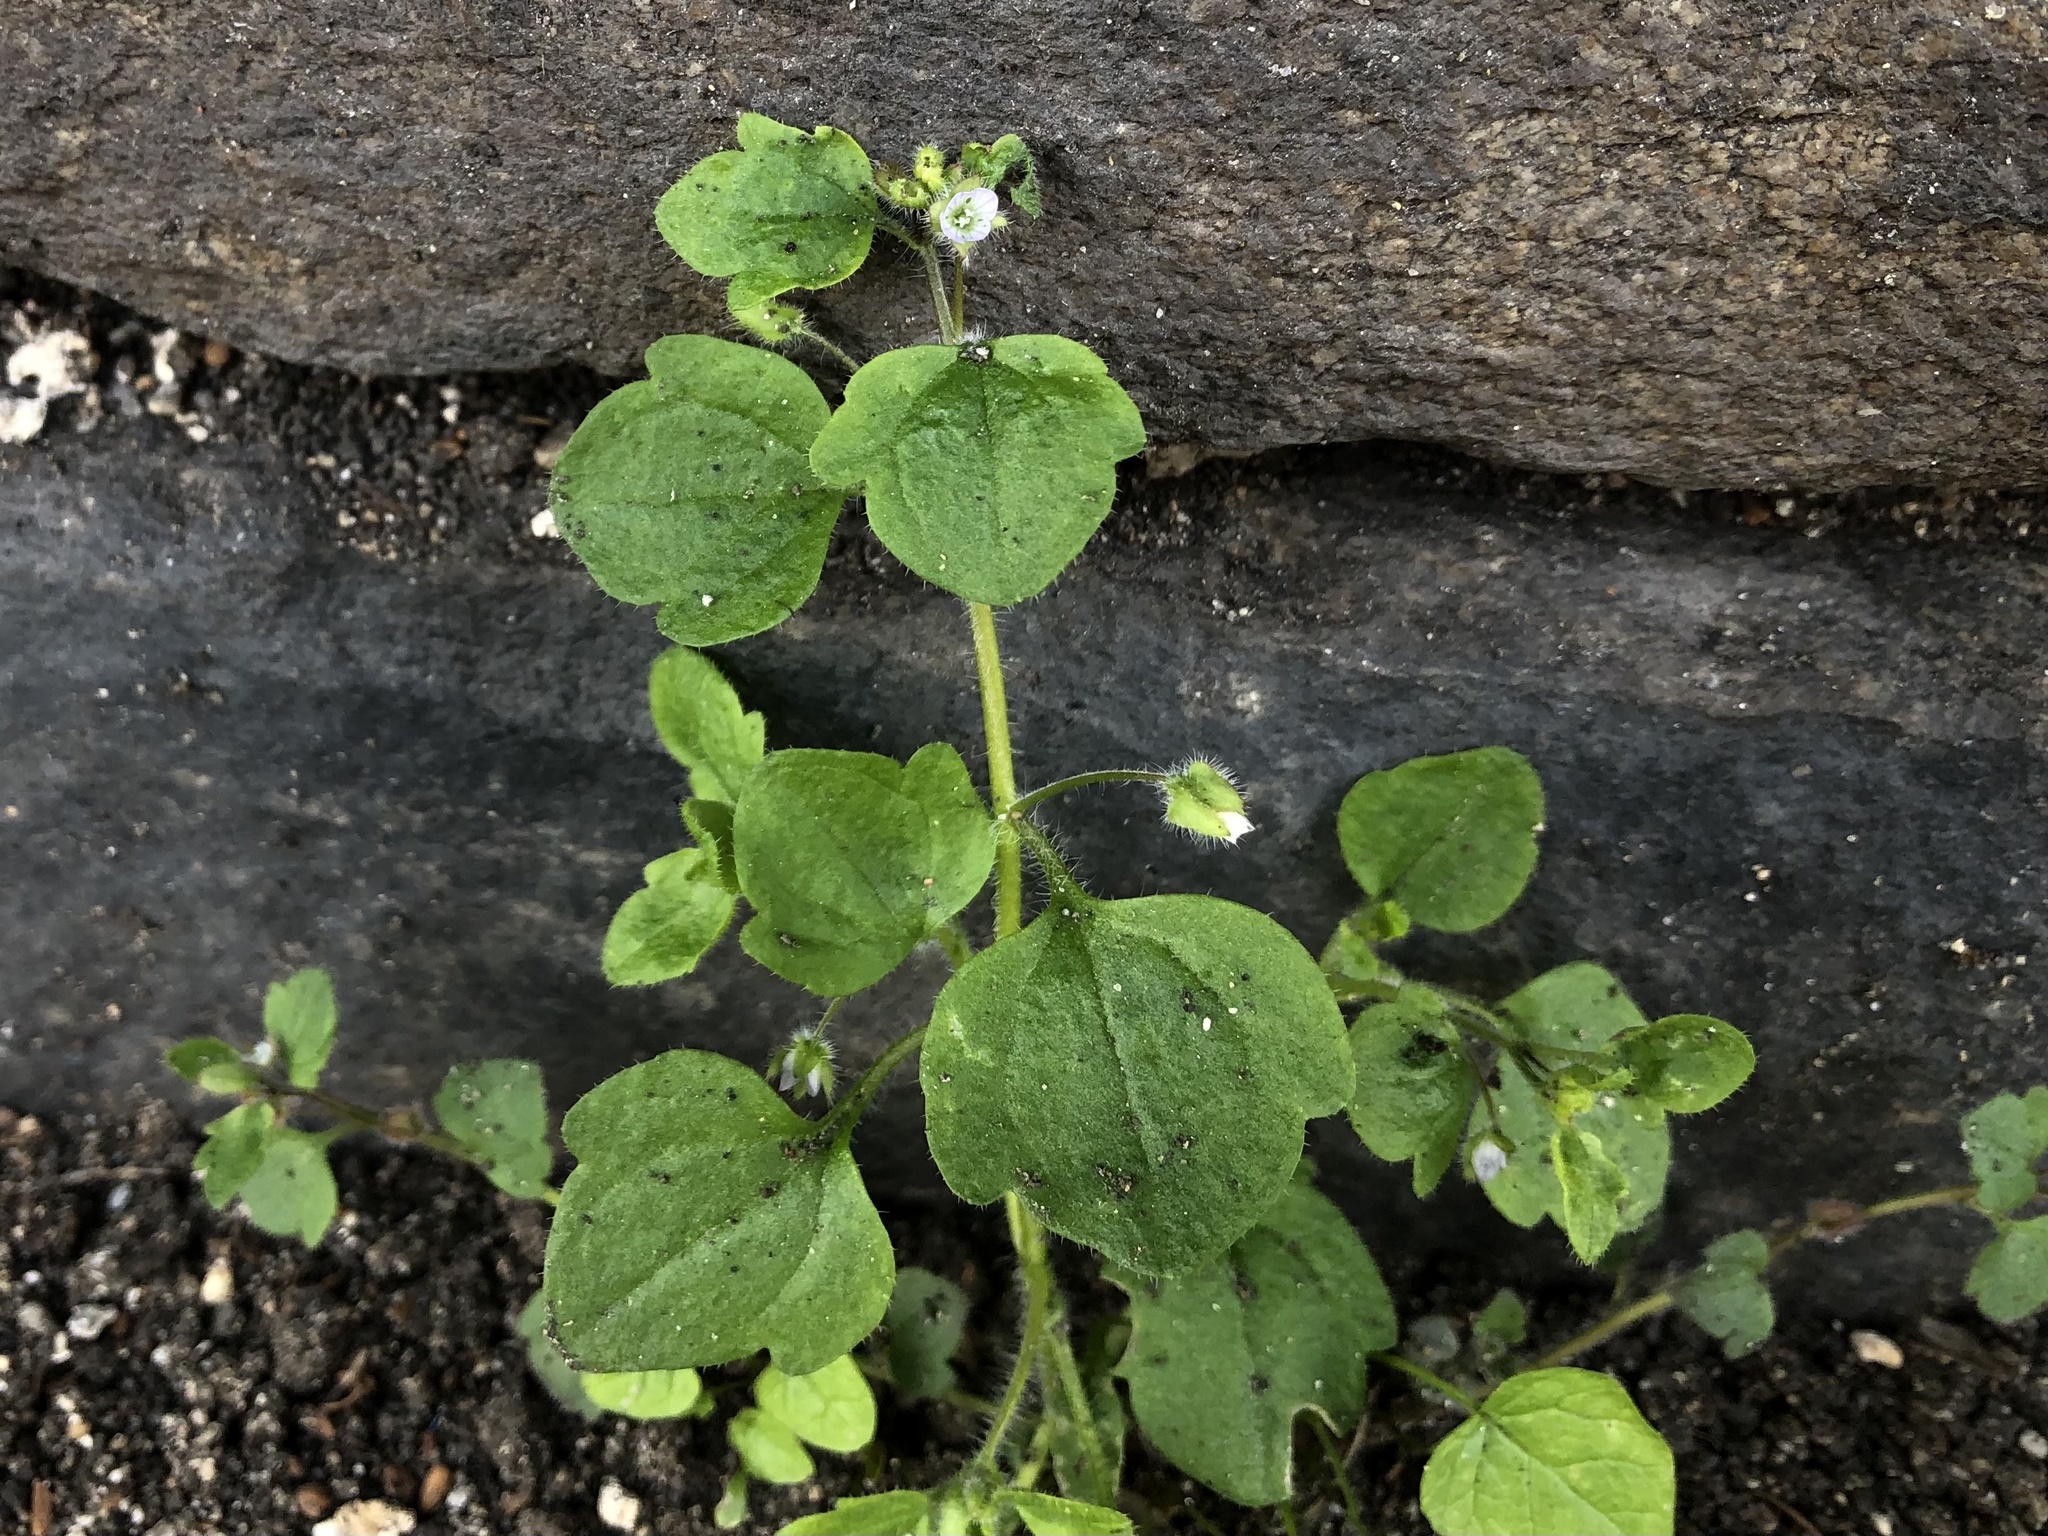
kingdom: Plantae
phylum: Tracheophyta
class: Magnoliopsida
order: Lamiales
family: Plantaginaceae
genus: Veronica
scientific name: Veronica sublobata
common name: False ivy-leaved speedwell
